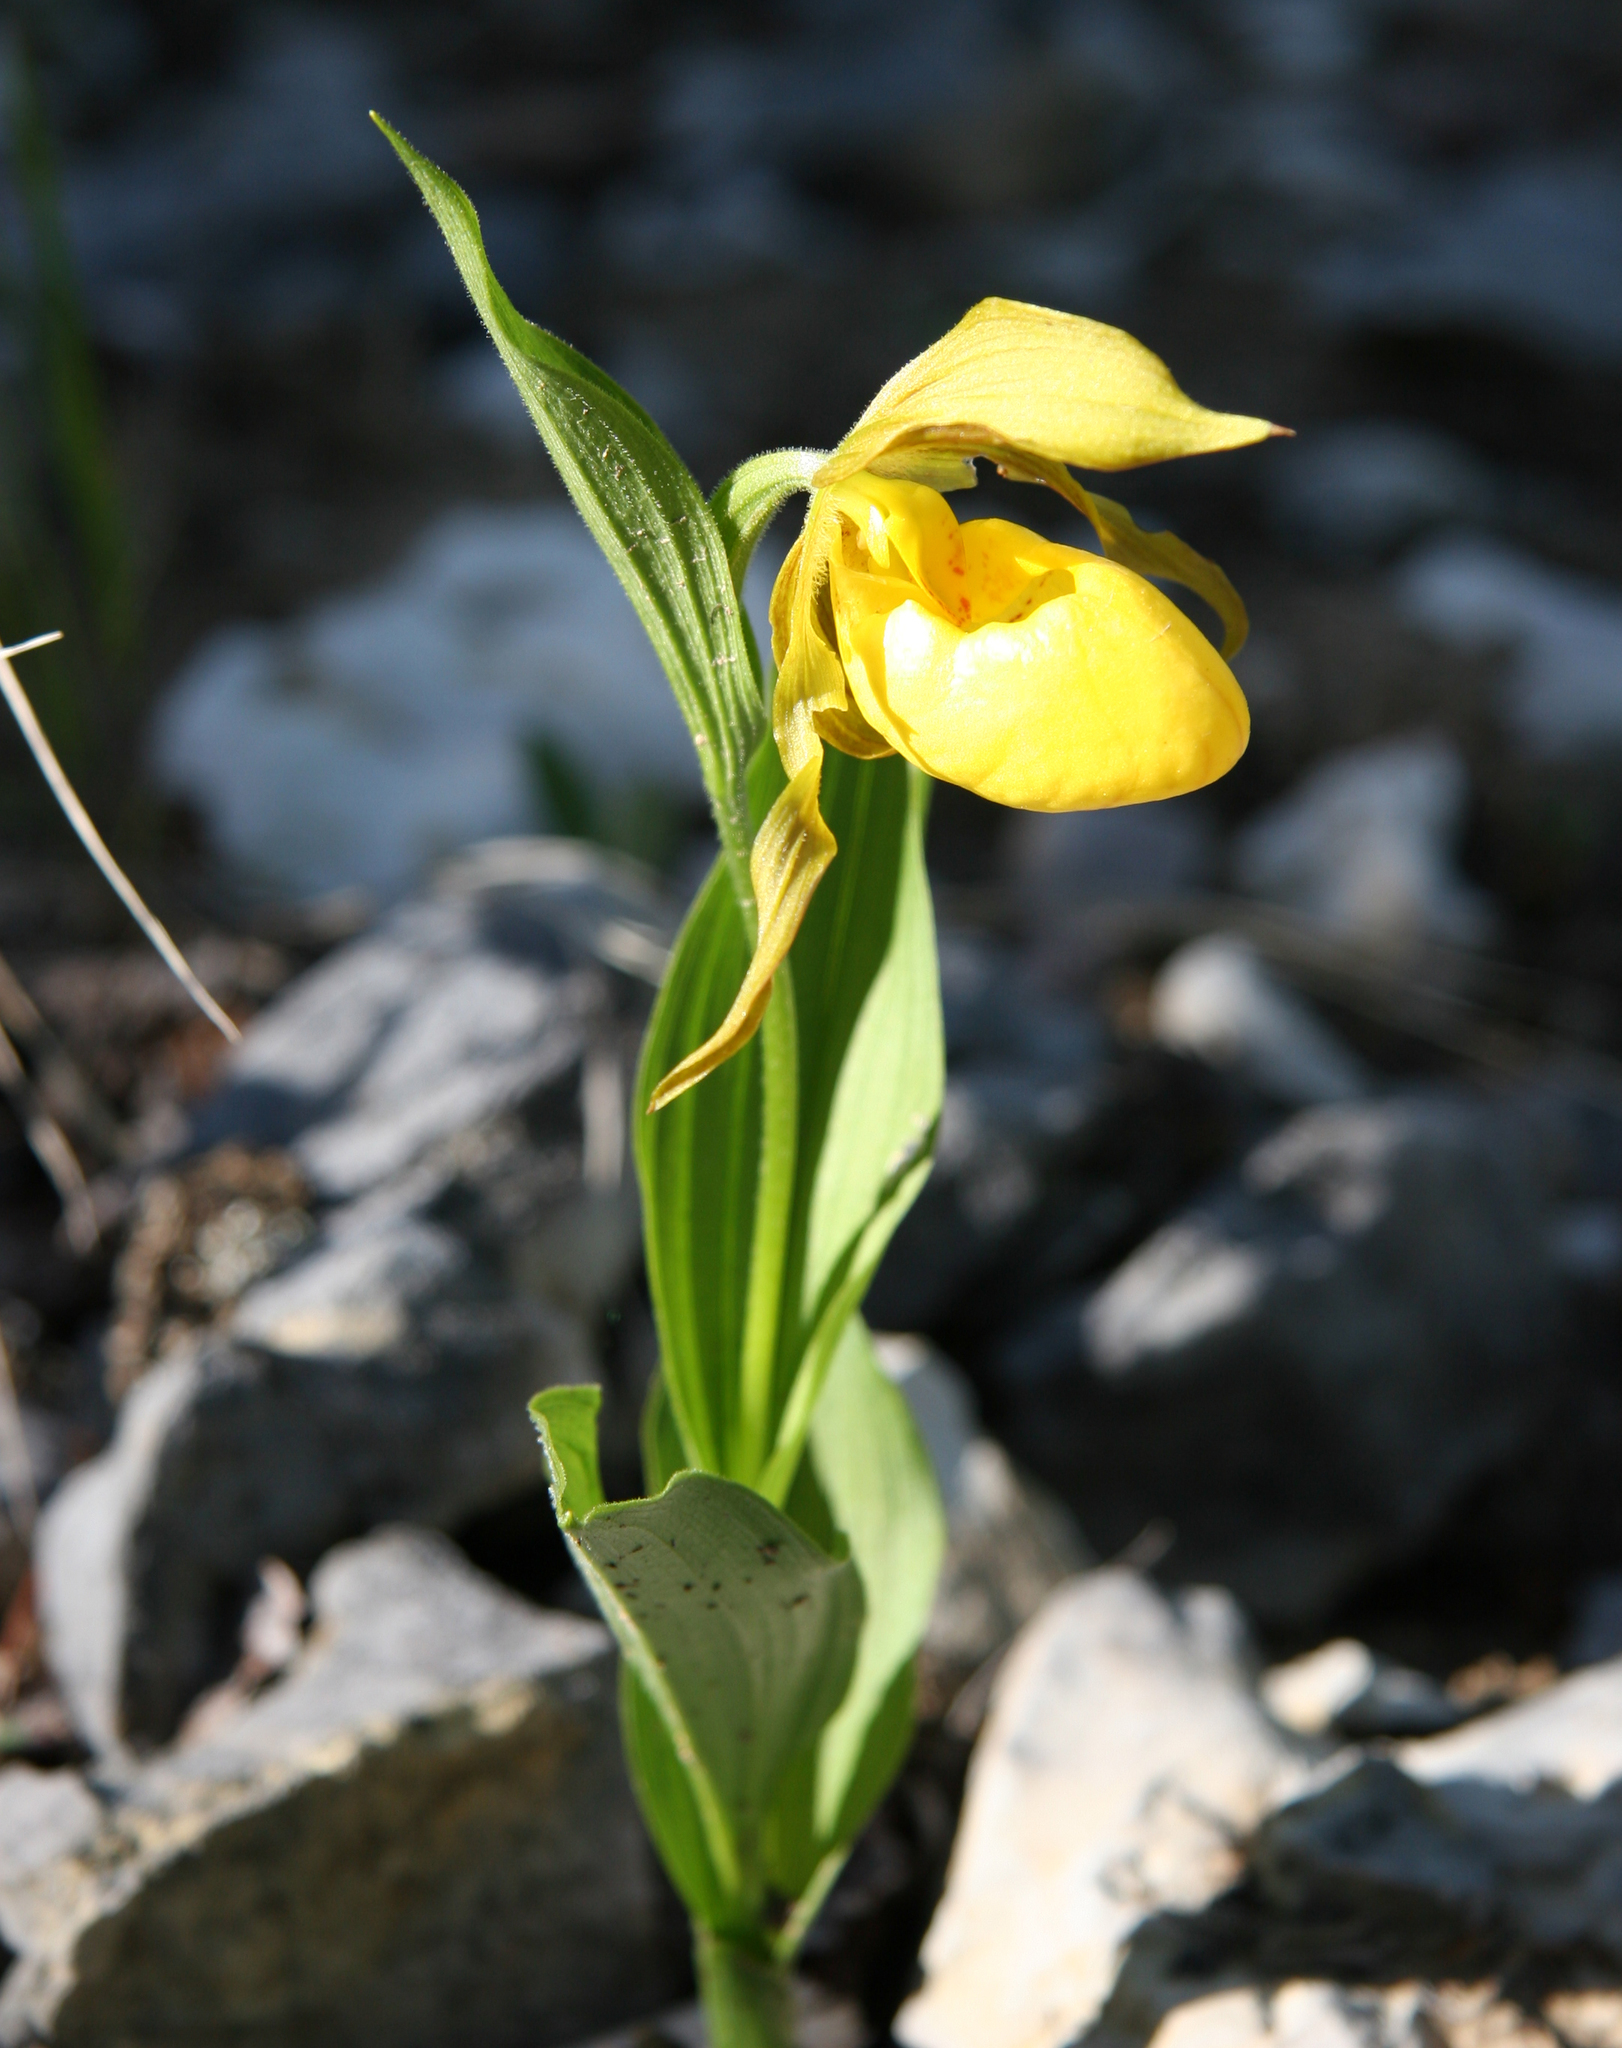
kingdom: Plantae
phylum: Tracheophyta
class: Liliopsida
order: Asparagales
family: Orchidaceae
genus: Cypripedium
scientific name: Cypripedium parviflorum
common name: American yellow lady's-slipper
